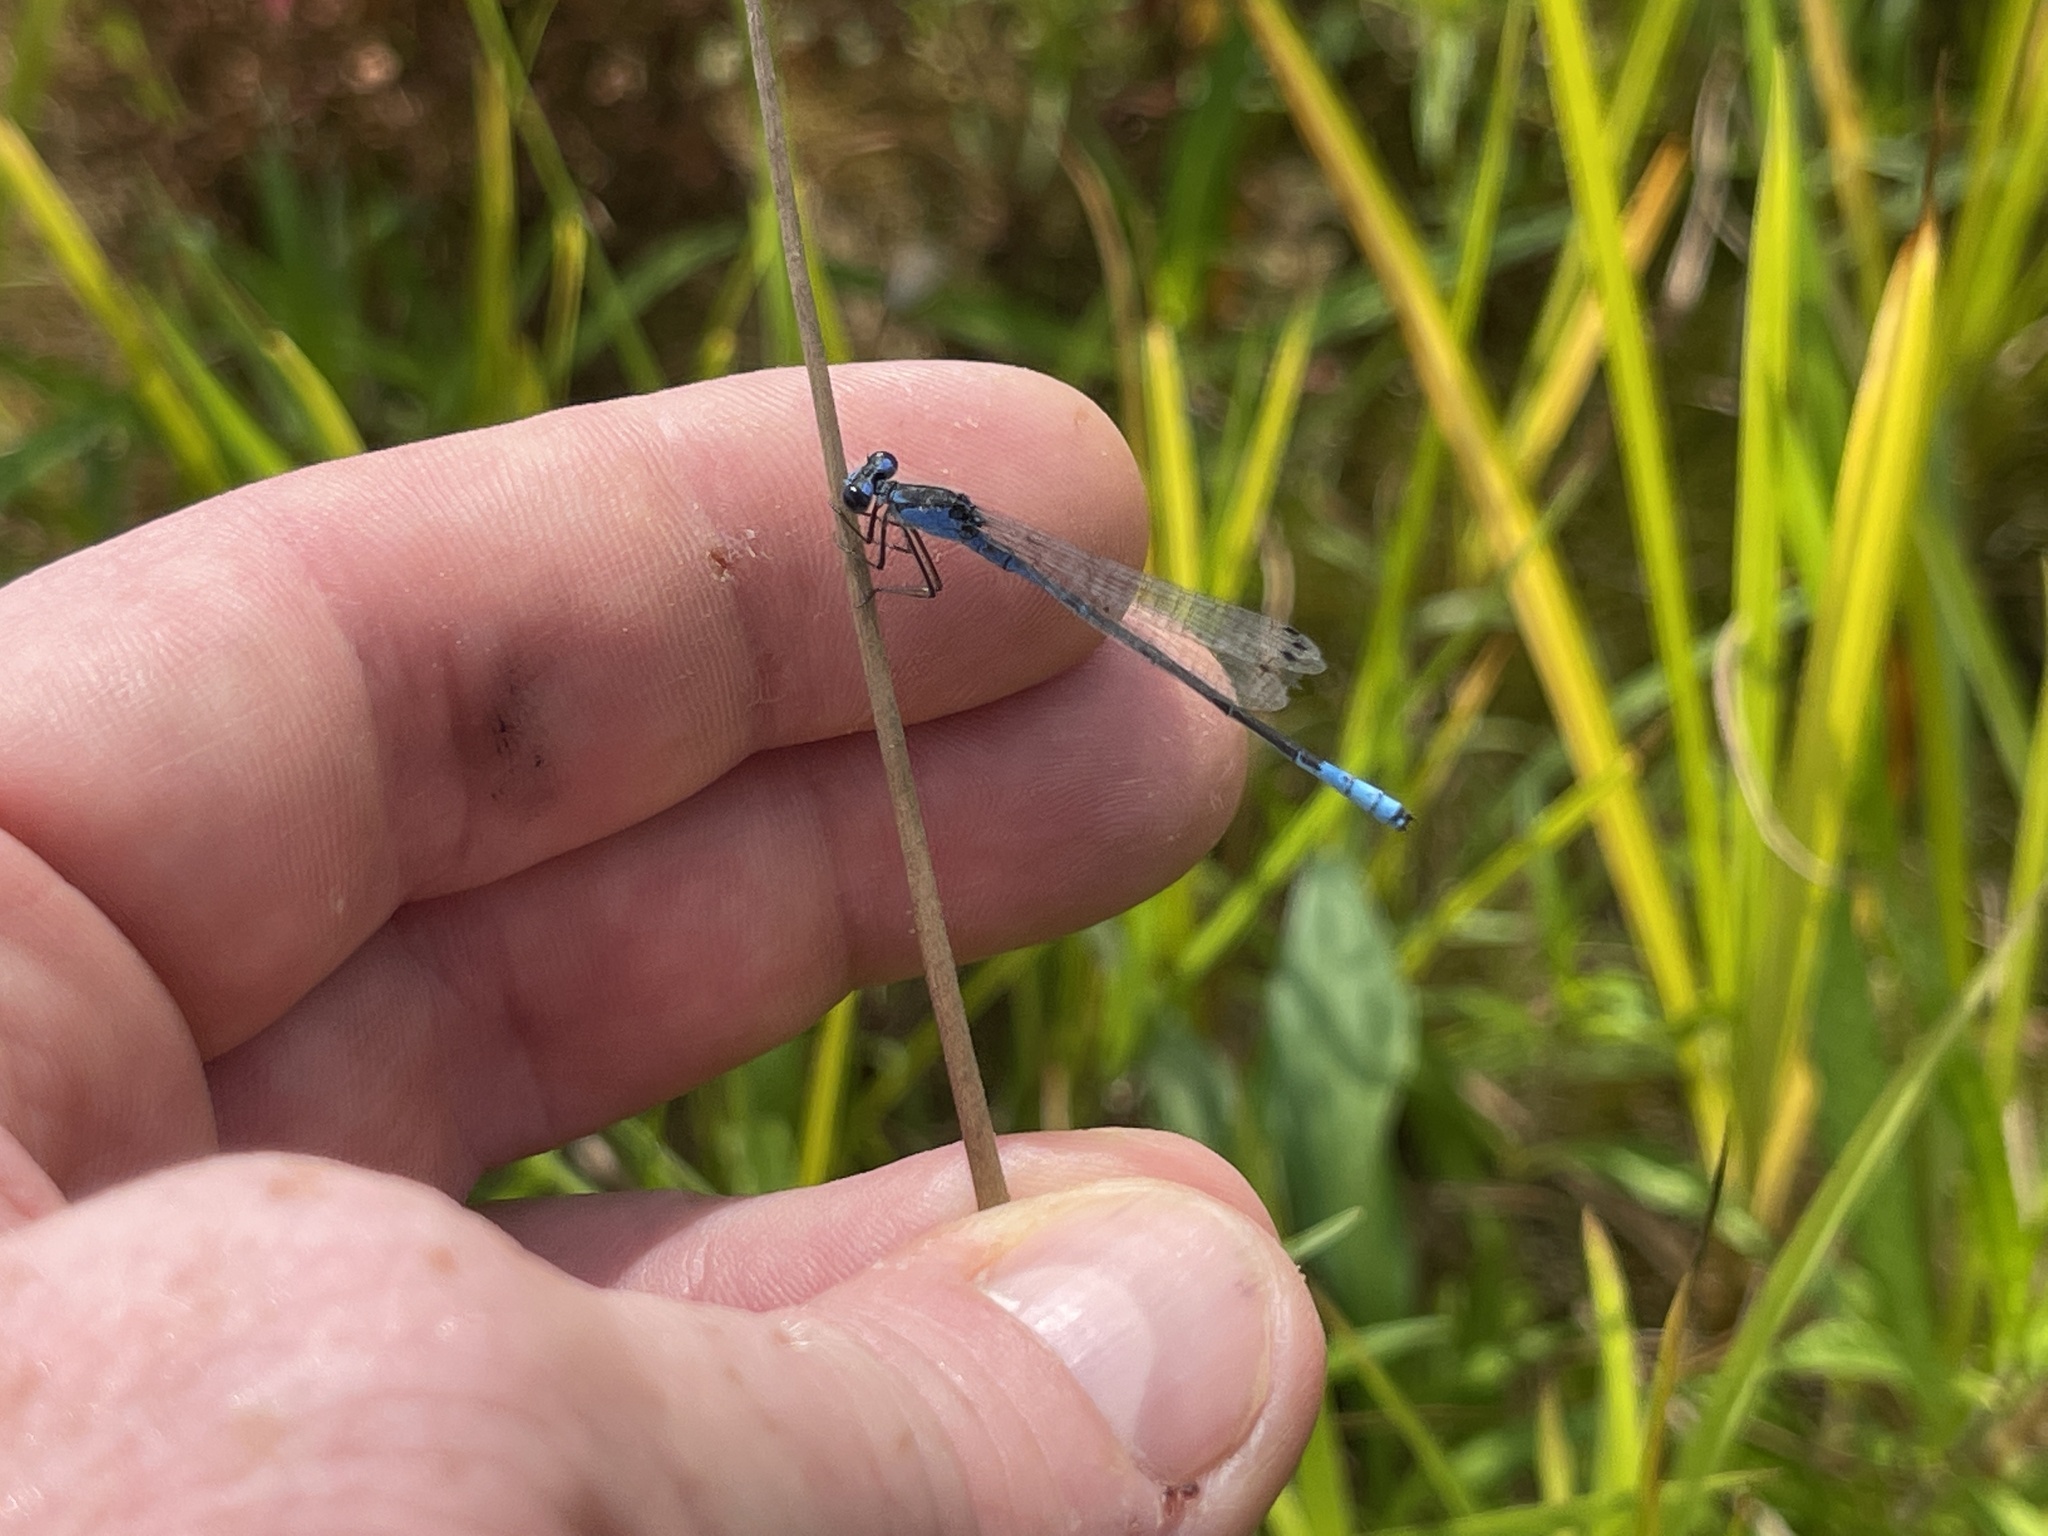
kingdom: Animalia
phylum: Arthropoda
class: Insecta
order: Odonata
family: Coenagrionidae
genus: Enallagma
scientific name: Enallagma aspersum
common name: Azure bluet
